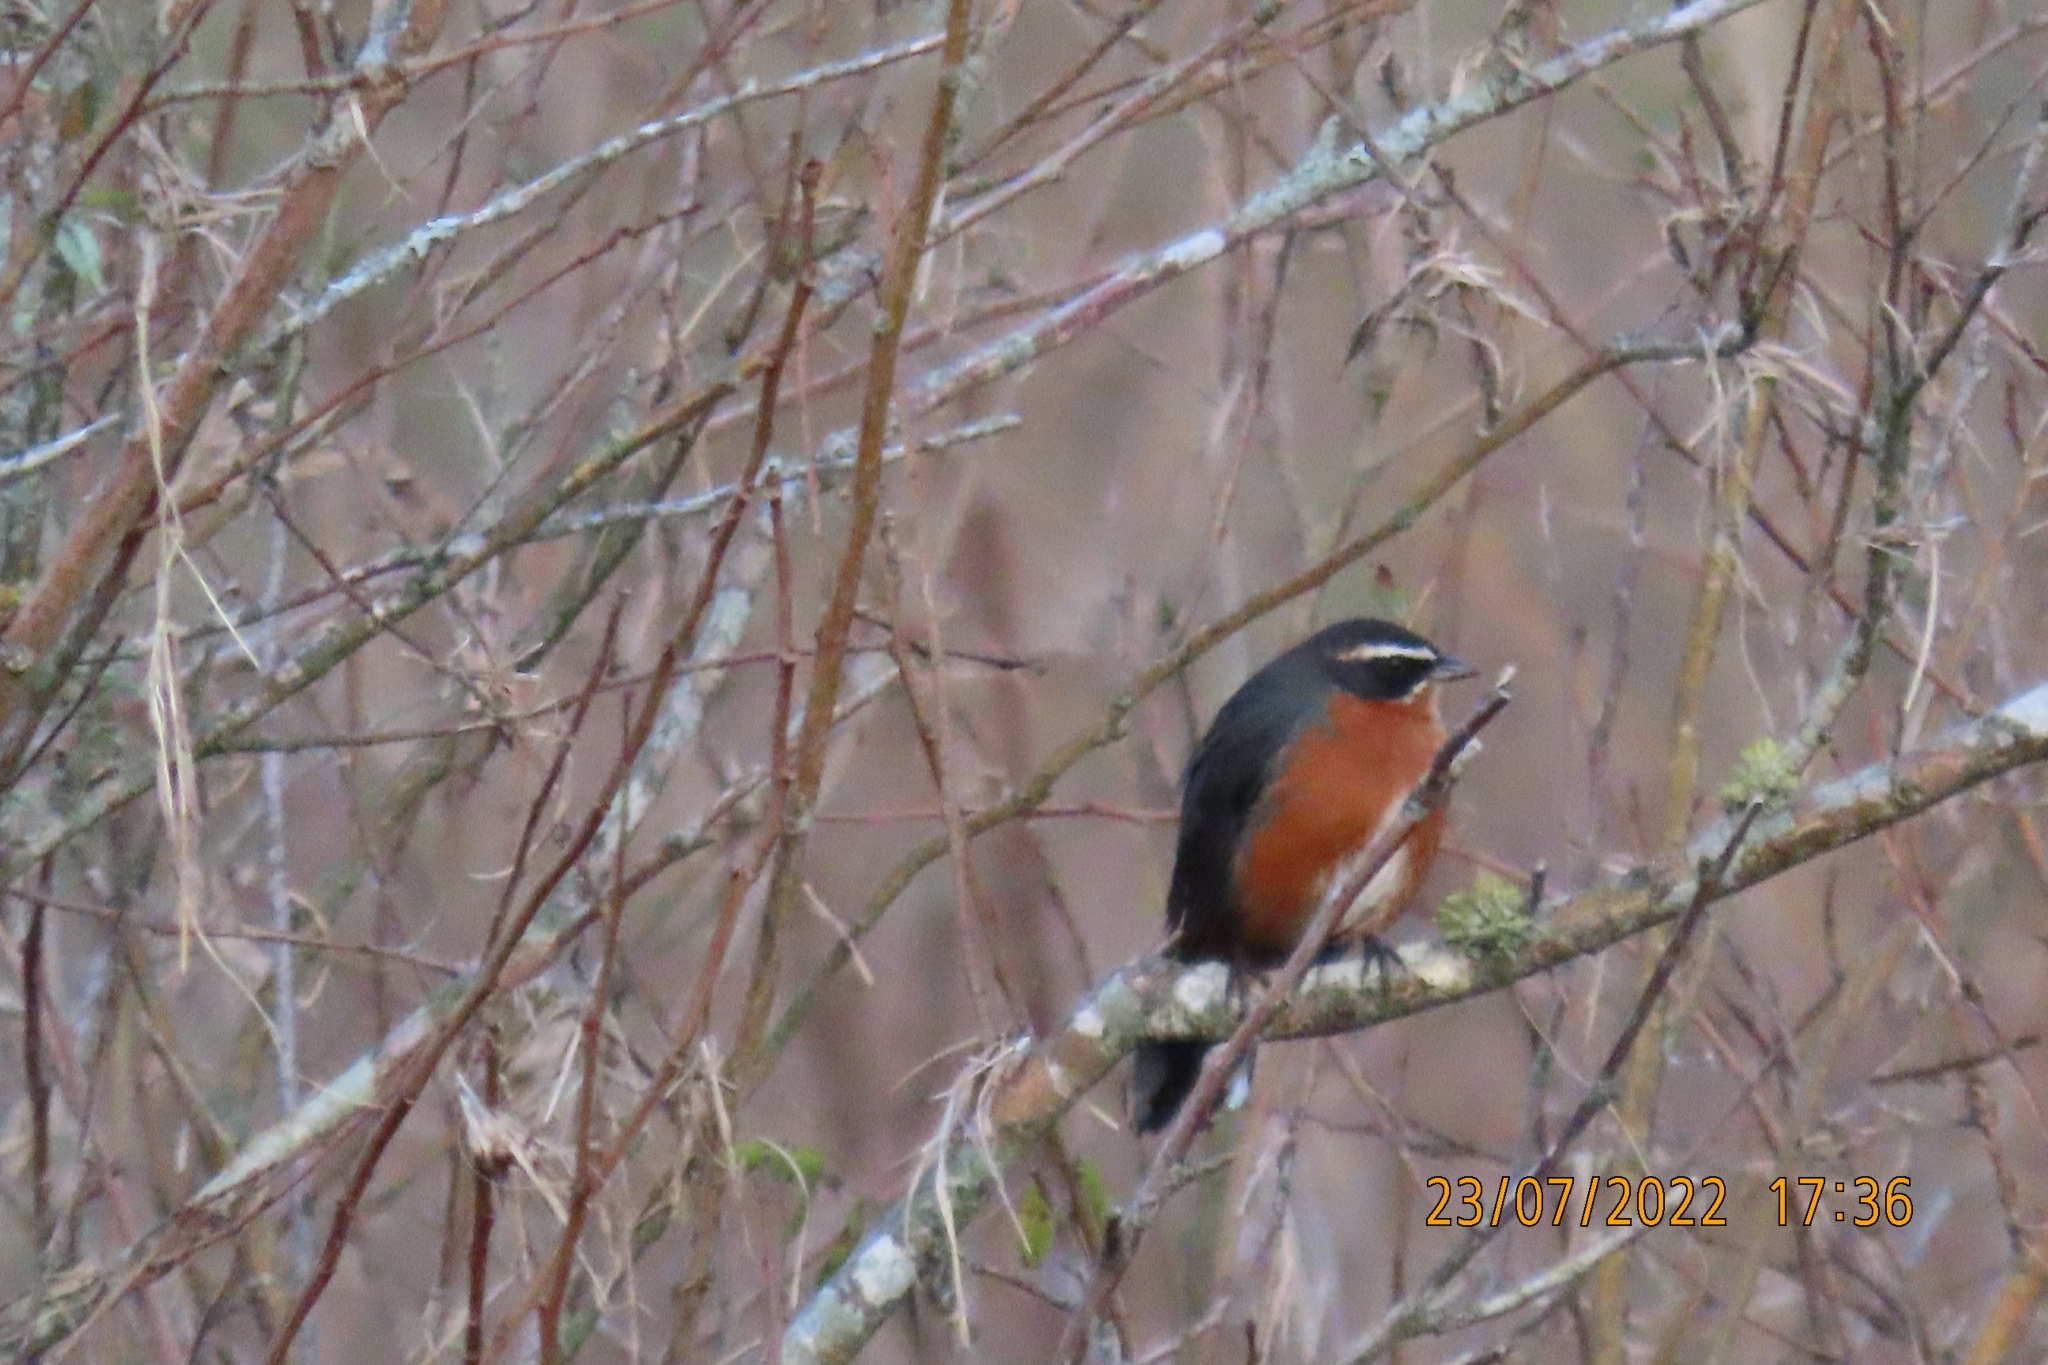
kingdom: Animalia
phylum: Chordata
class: Aves
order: Passeriformes
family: Thraupidae
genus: Poospiza
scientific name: Poospiza nigrorufa
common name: Black-and-rufous warbling finch
